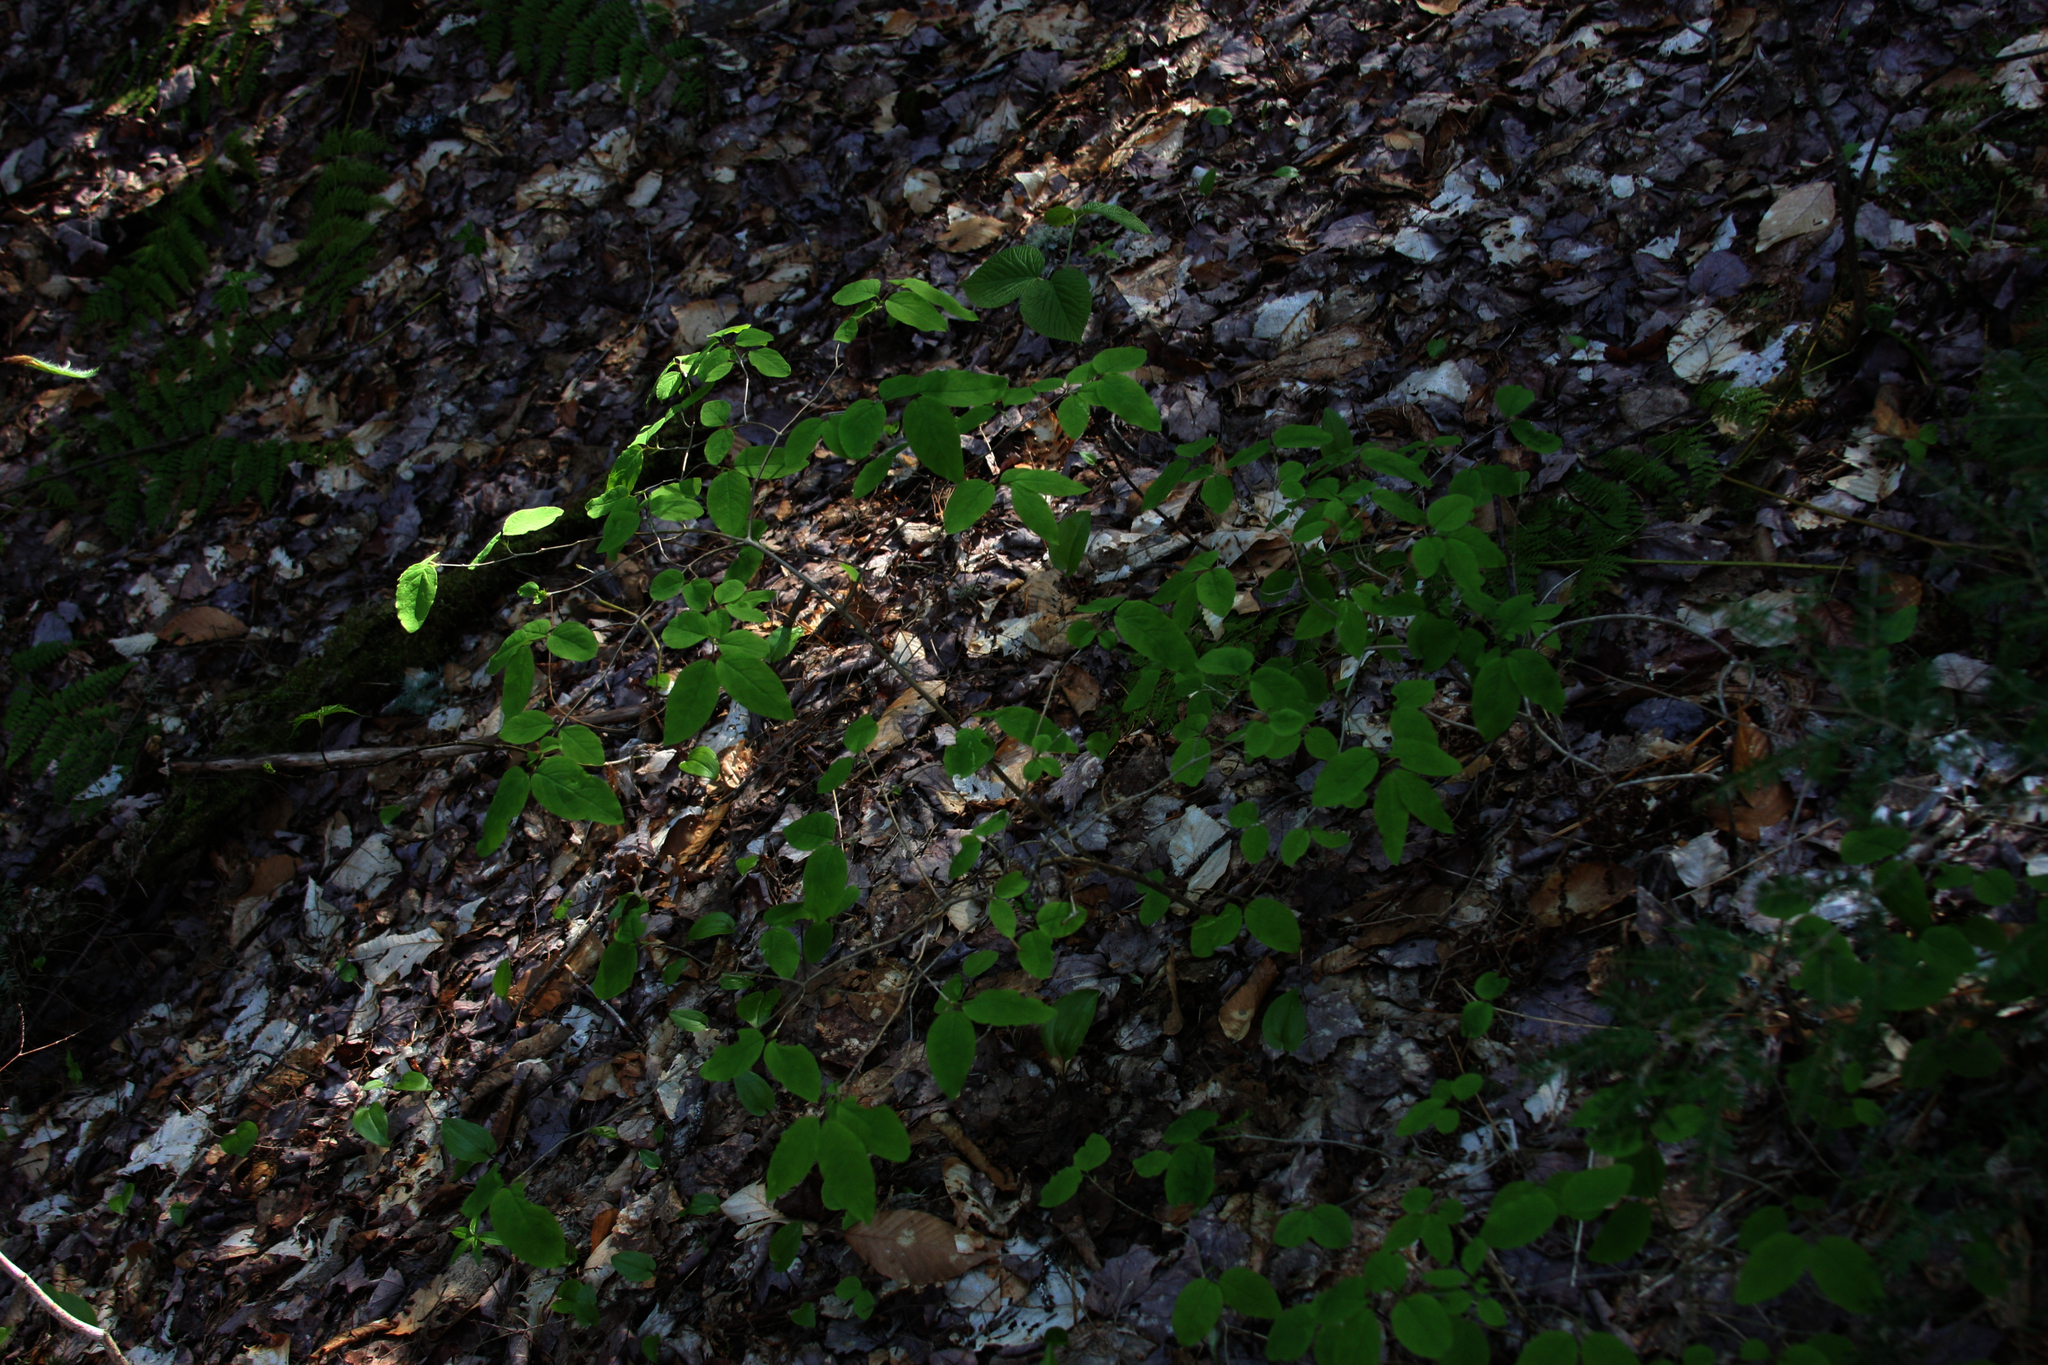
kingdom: Plantae
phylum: Tracheophyta
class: Magnoliopsida
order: Dipsacales
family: Caprifoliaceae
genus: Lonicera
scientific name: Lonicera canadensis
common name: American fly-honeysuckle
